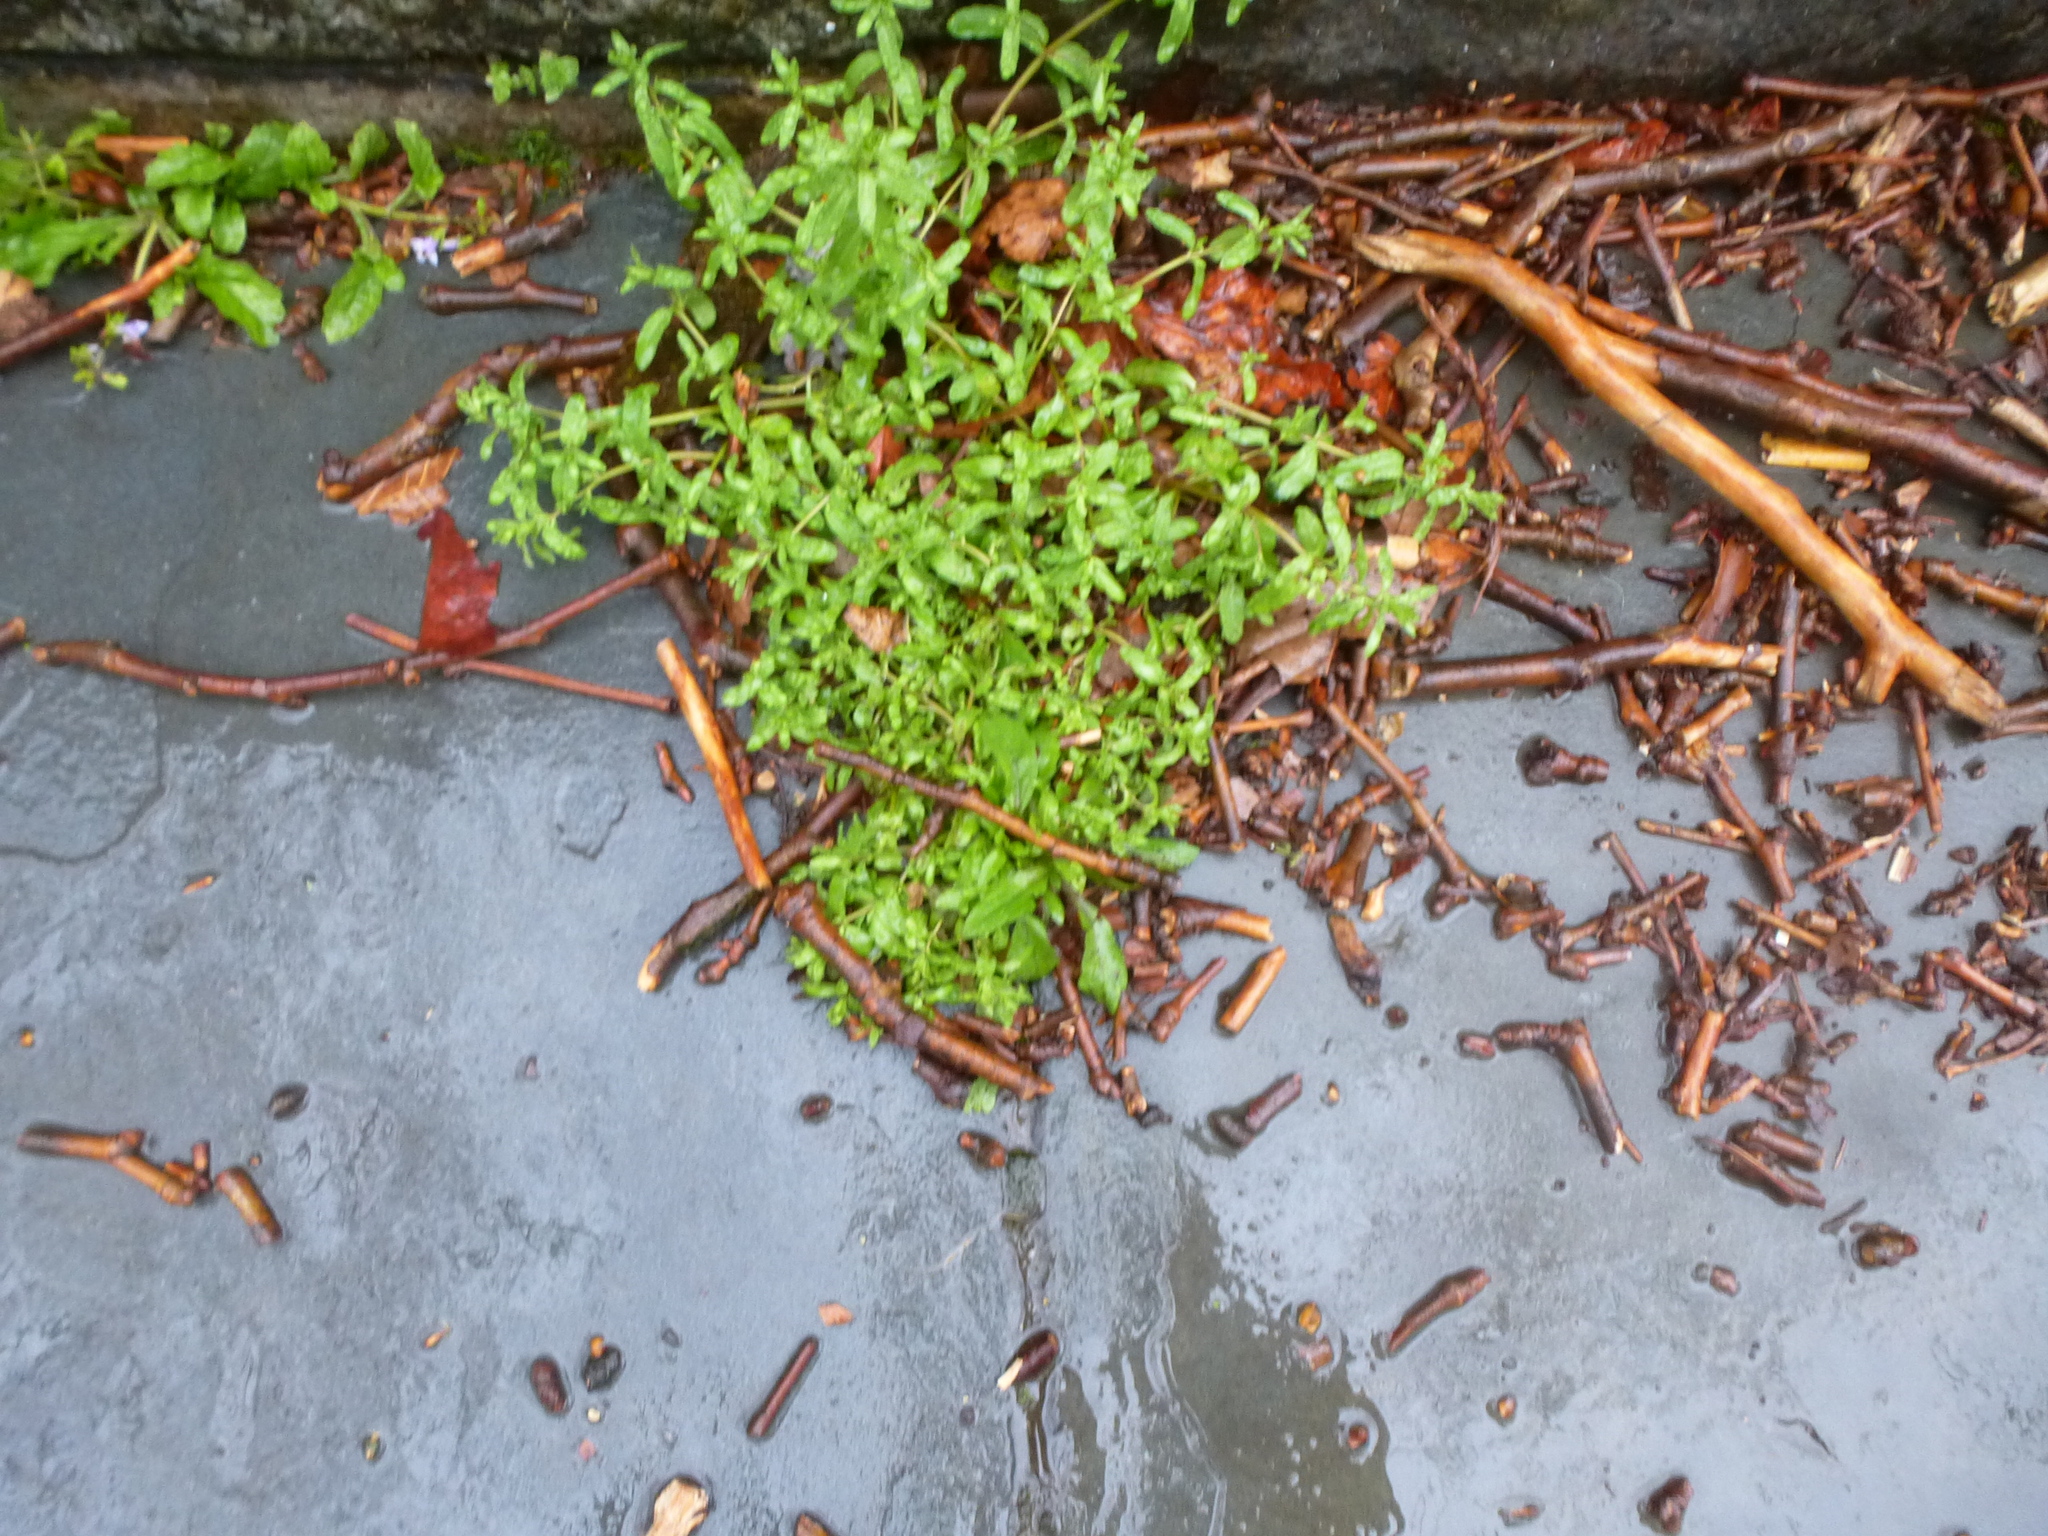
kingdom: Plantae
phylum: Tracheophyta
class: Magnoliopsida
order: Lamiales
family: Plantaginaceae
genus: Veronica
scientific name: Veronica peregrina
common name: Neckweed
